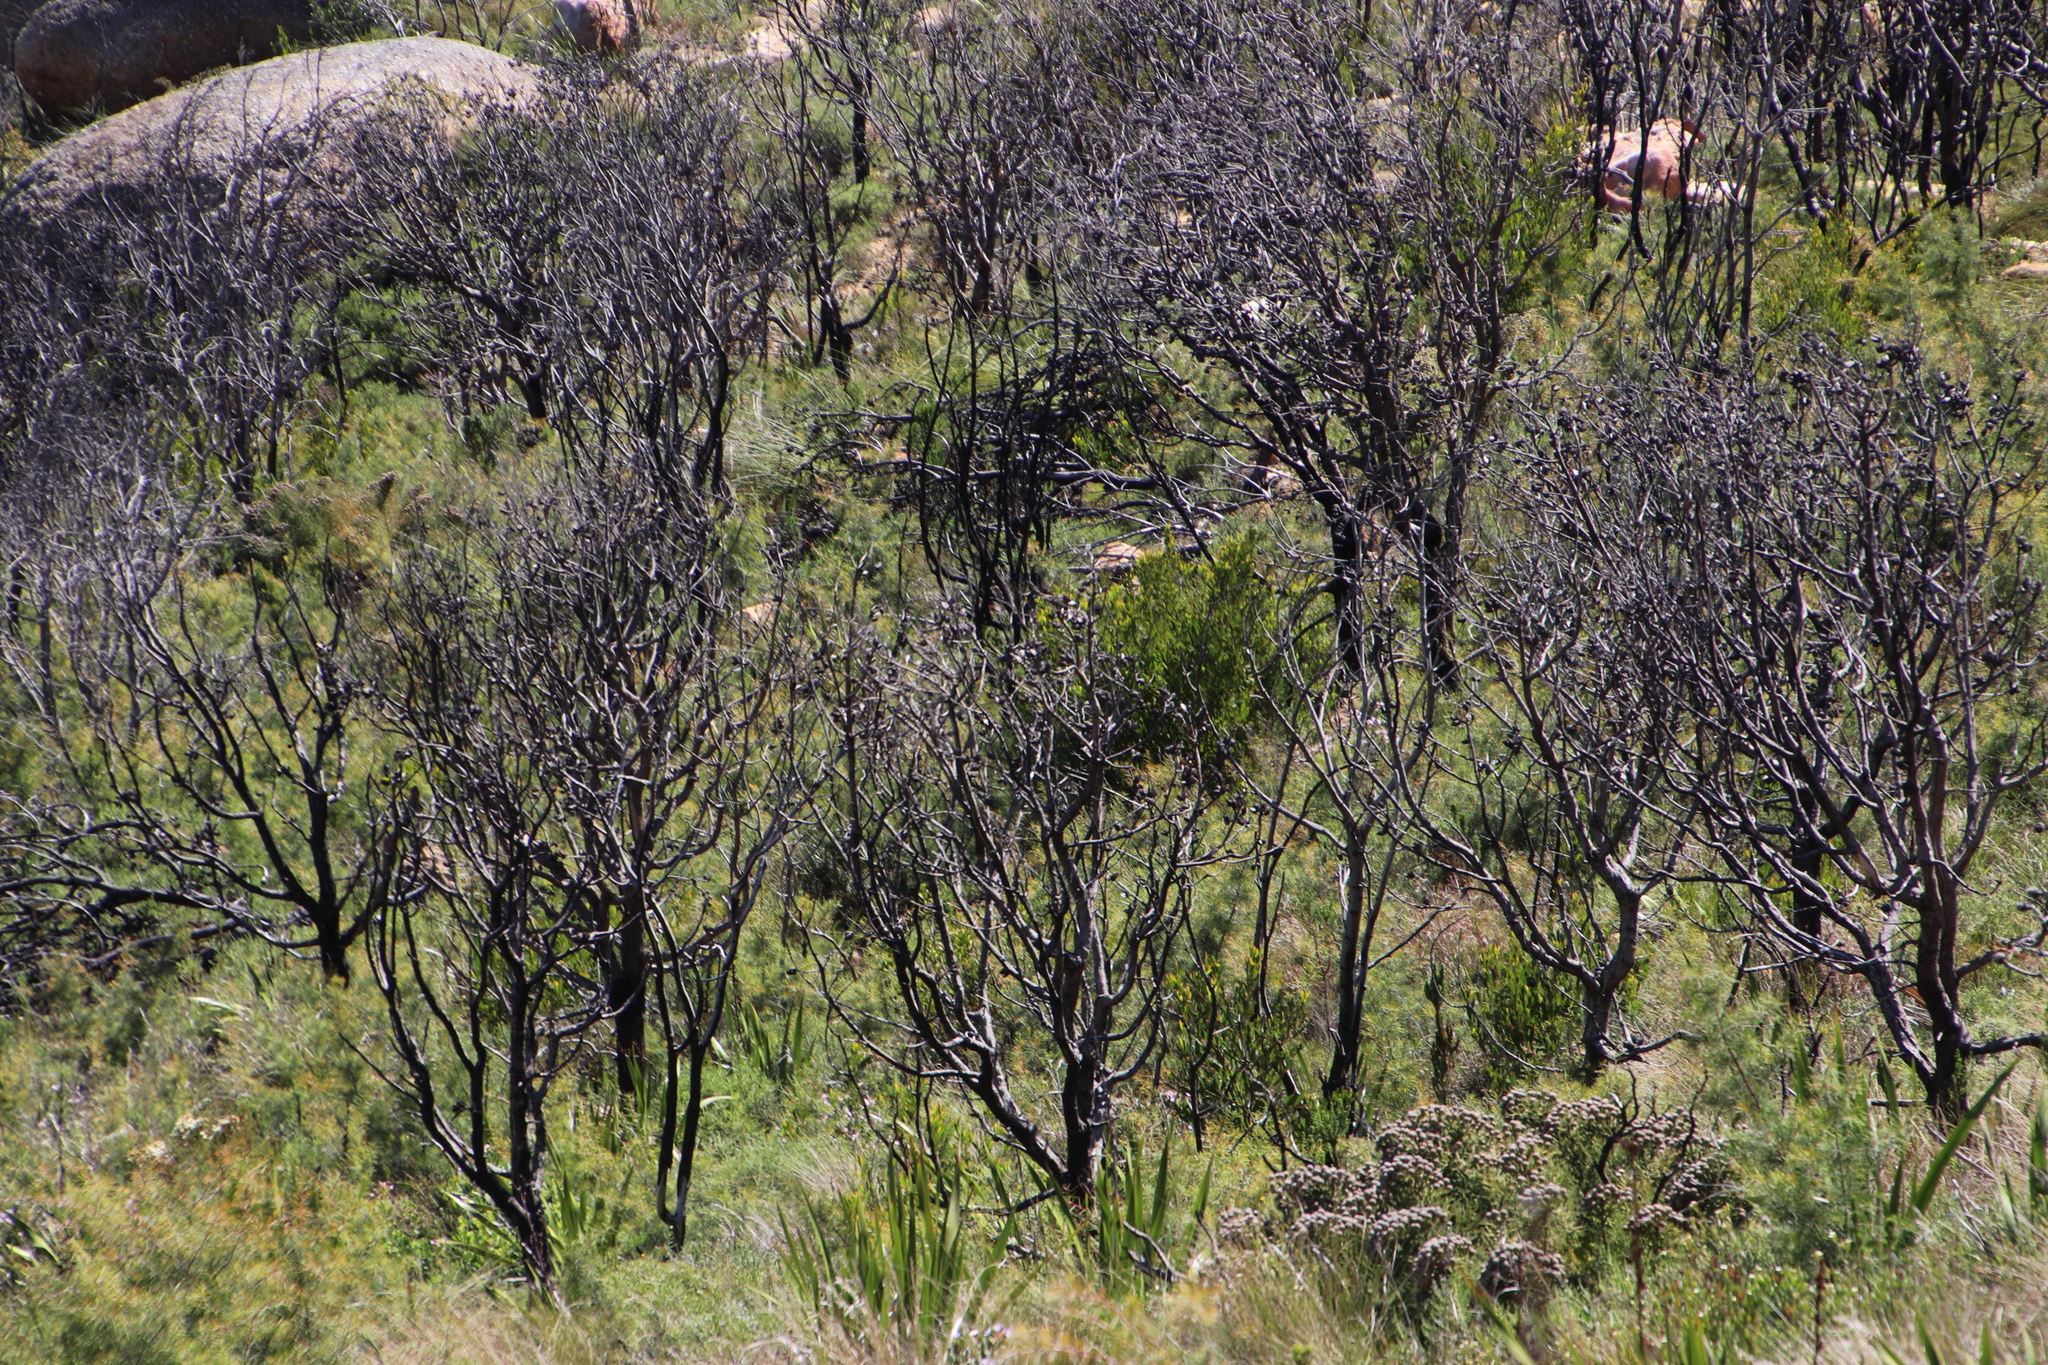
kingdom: Plantae
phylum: Tracheophyta
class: Magnoliopsida
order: Proteales
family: Proteaceae
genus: Hakea
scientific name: Hakea sericea
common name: Needle bush
